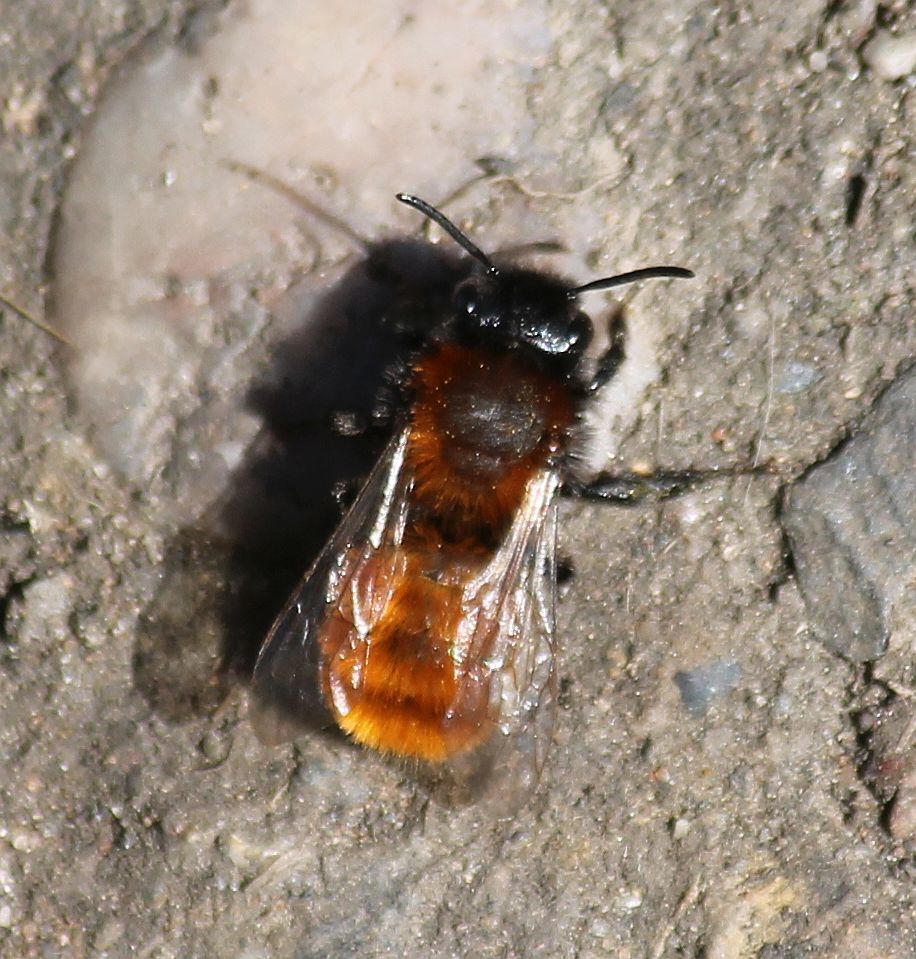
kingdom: Animalia
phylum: Arthropoda
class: Insecta
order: Hymenoptera
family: Andrenidae
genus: Andrena
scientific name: Andrena fulva
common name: Tawny mining bee
